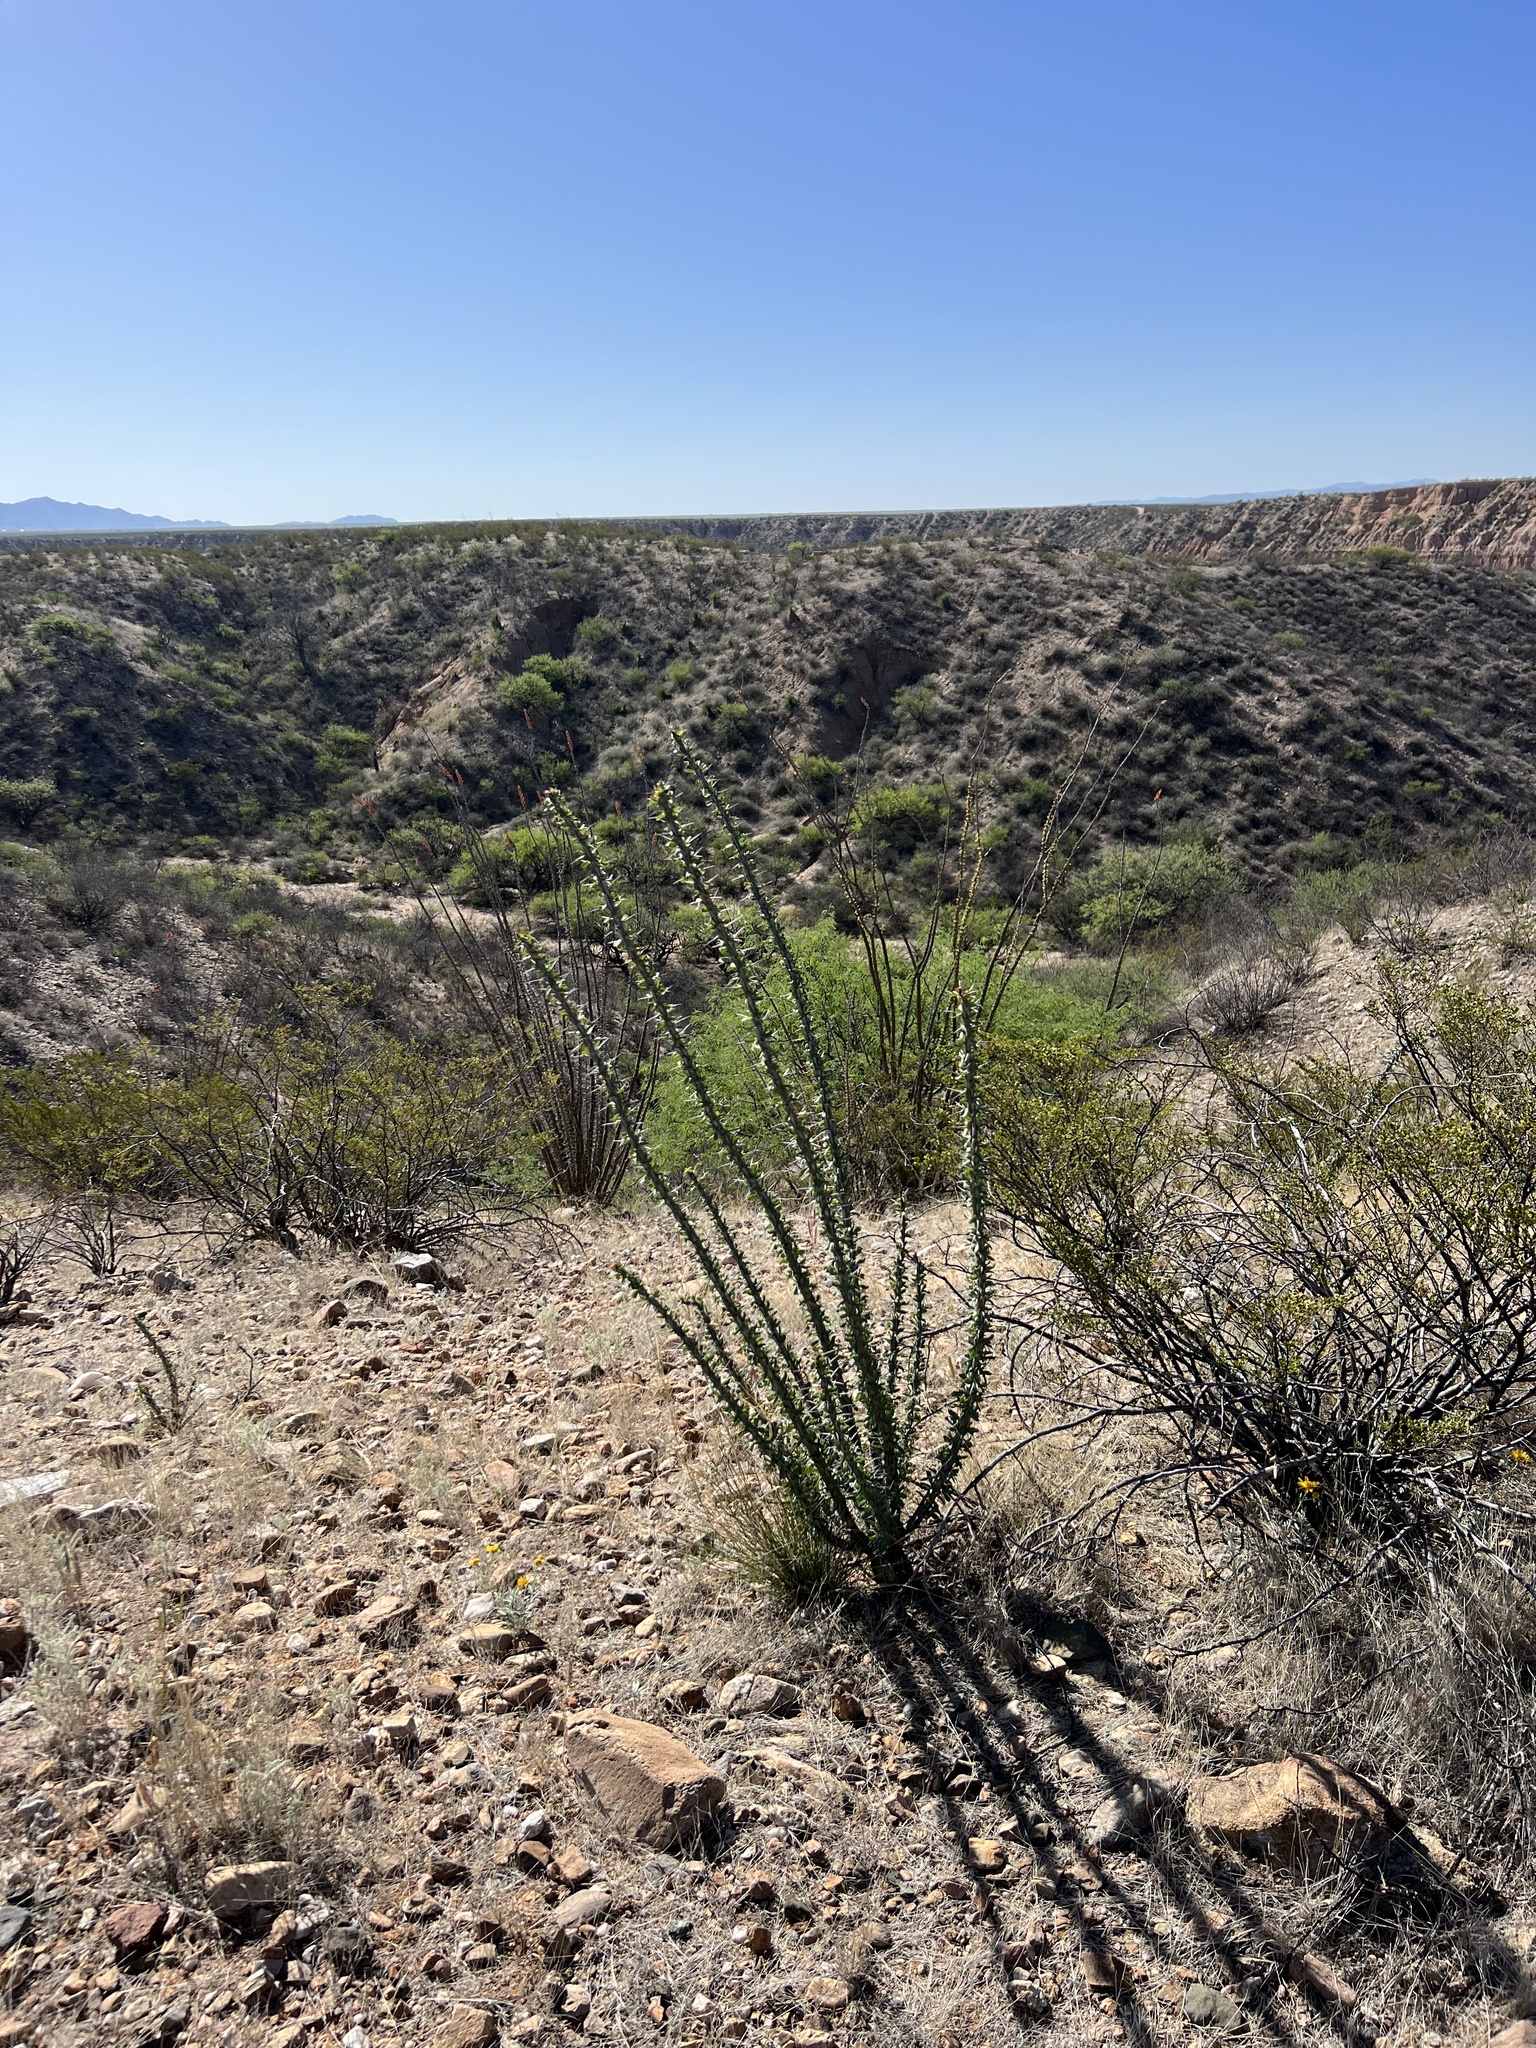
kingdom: Plantae
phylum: Tracheophyta
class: Magnoliopsida
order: Ericales
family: Fouquieriaceae
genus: Fouquieria
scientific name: Fouquieria splendens
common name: Vine-cactus
